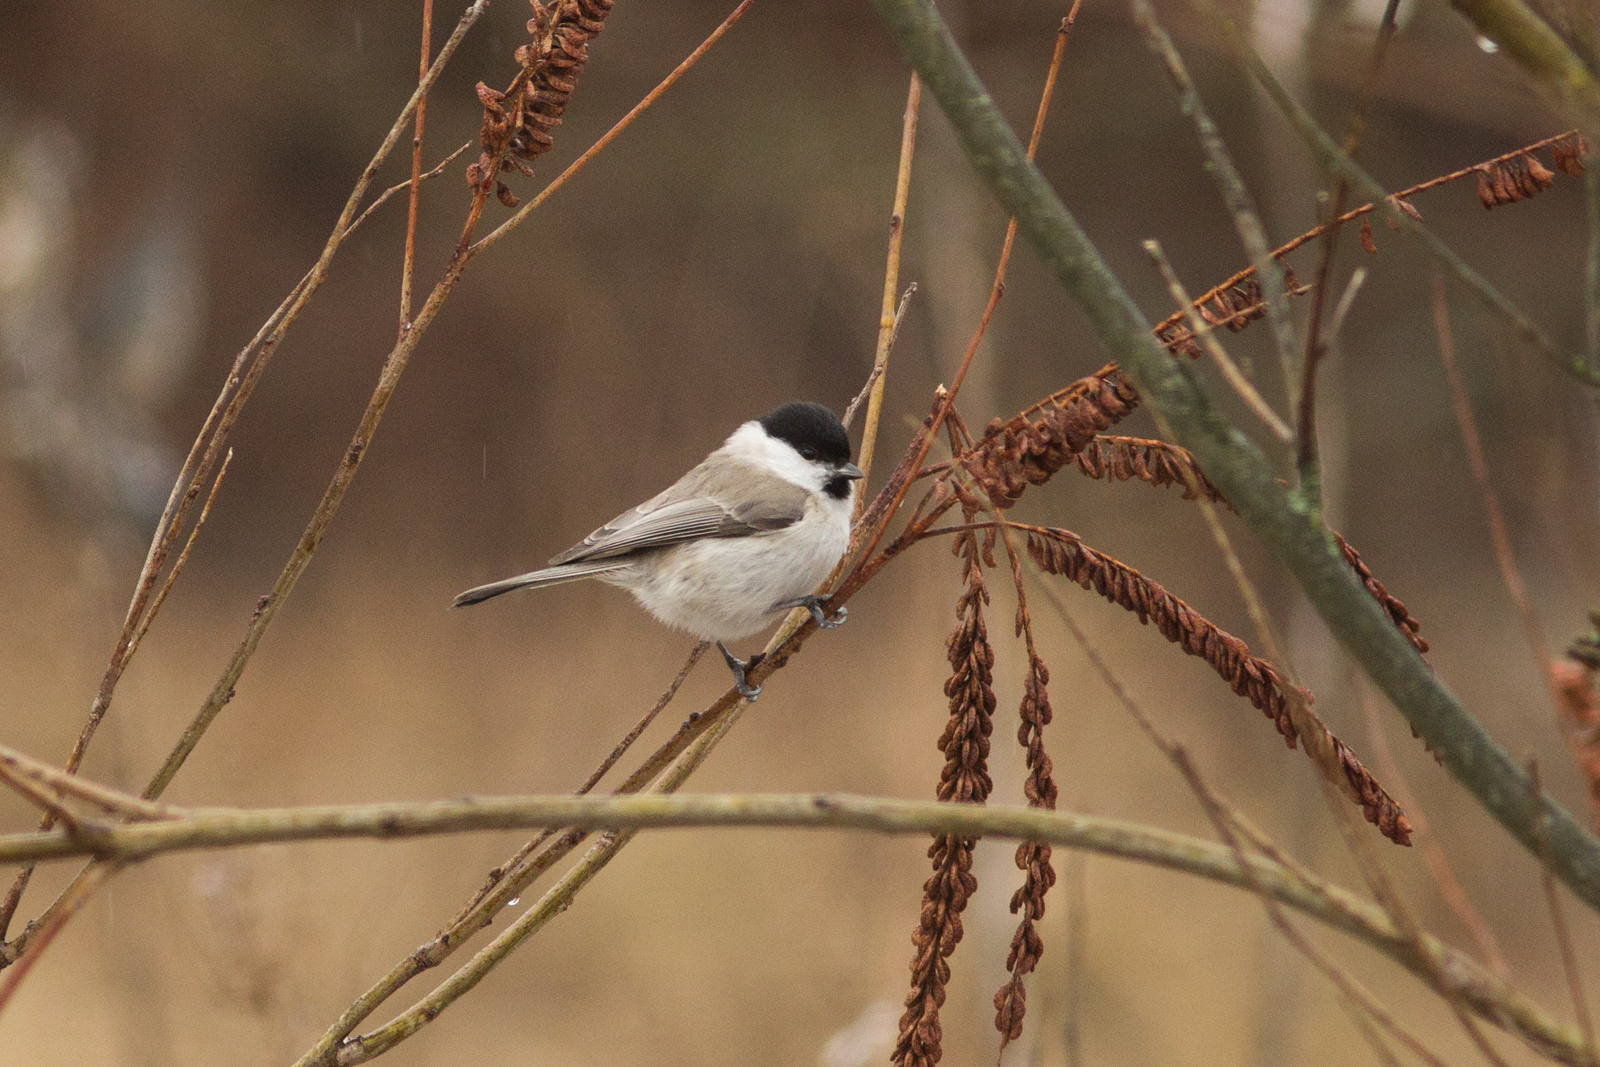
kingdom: Animalia
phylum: Chordata
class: Aves
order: Passeriformes
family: Paridae
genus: Poecile
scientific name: Poecile palustris
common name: Marsh tit
